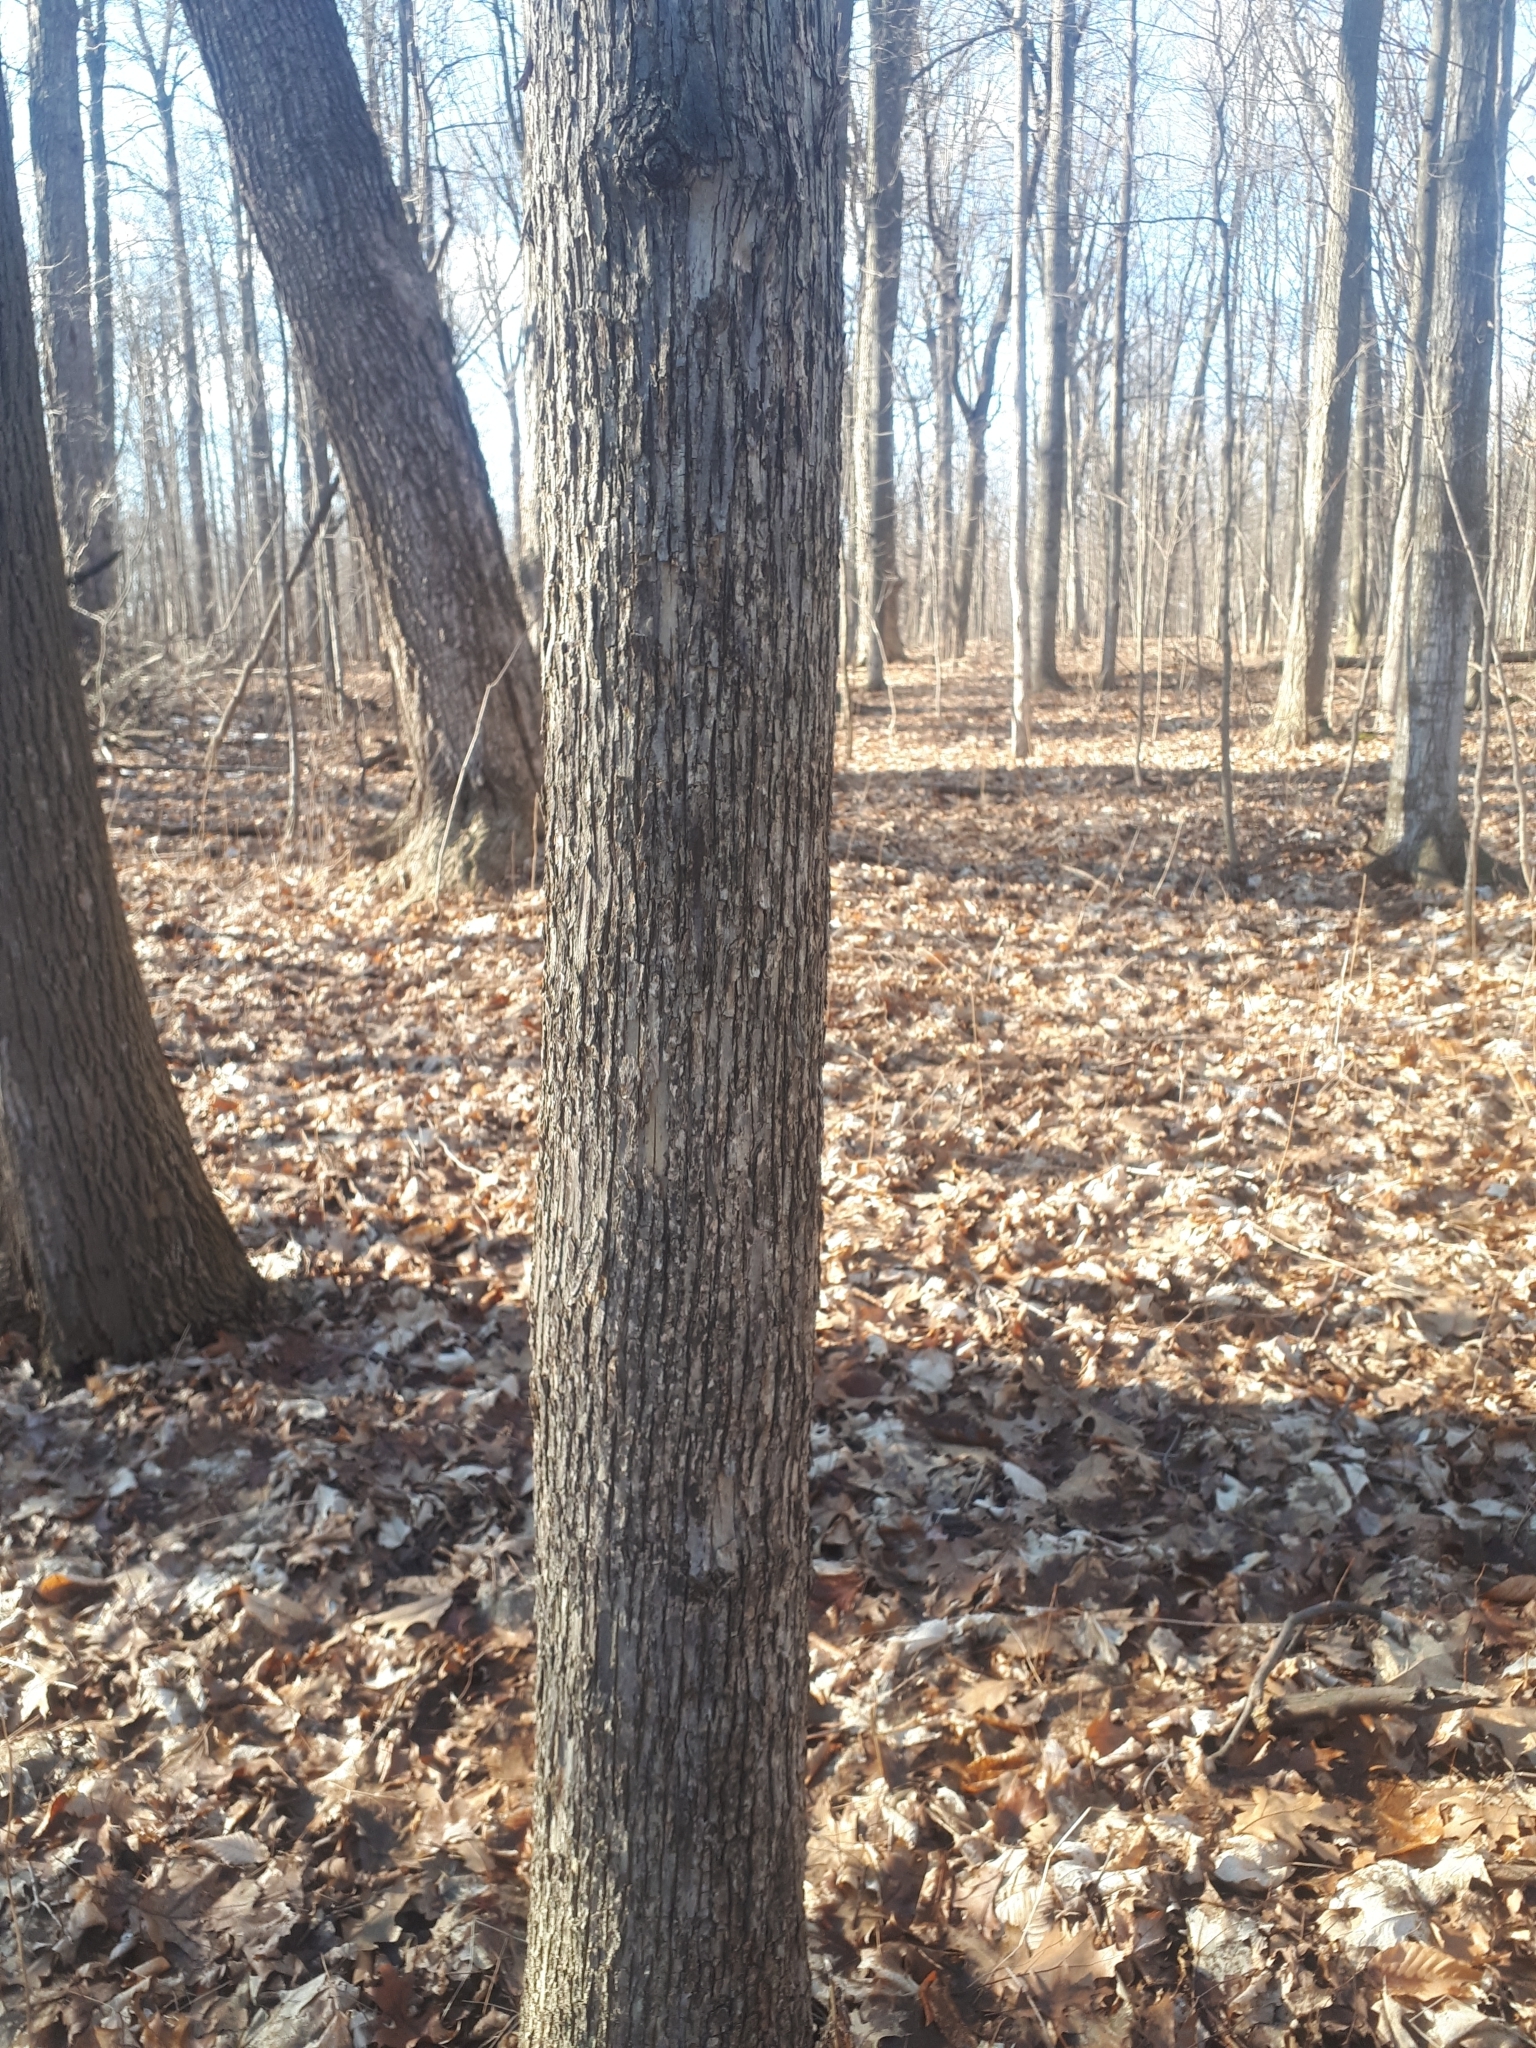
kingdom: Plantae
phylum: Tracheophyta
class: Magnoliopsida
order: Fagales
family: Betulaceae
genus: Ostrya
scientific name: Ostrya virginiana
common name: Ironwood
